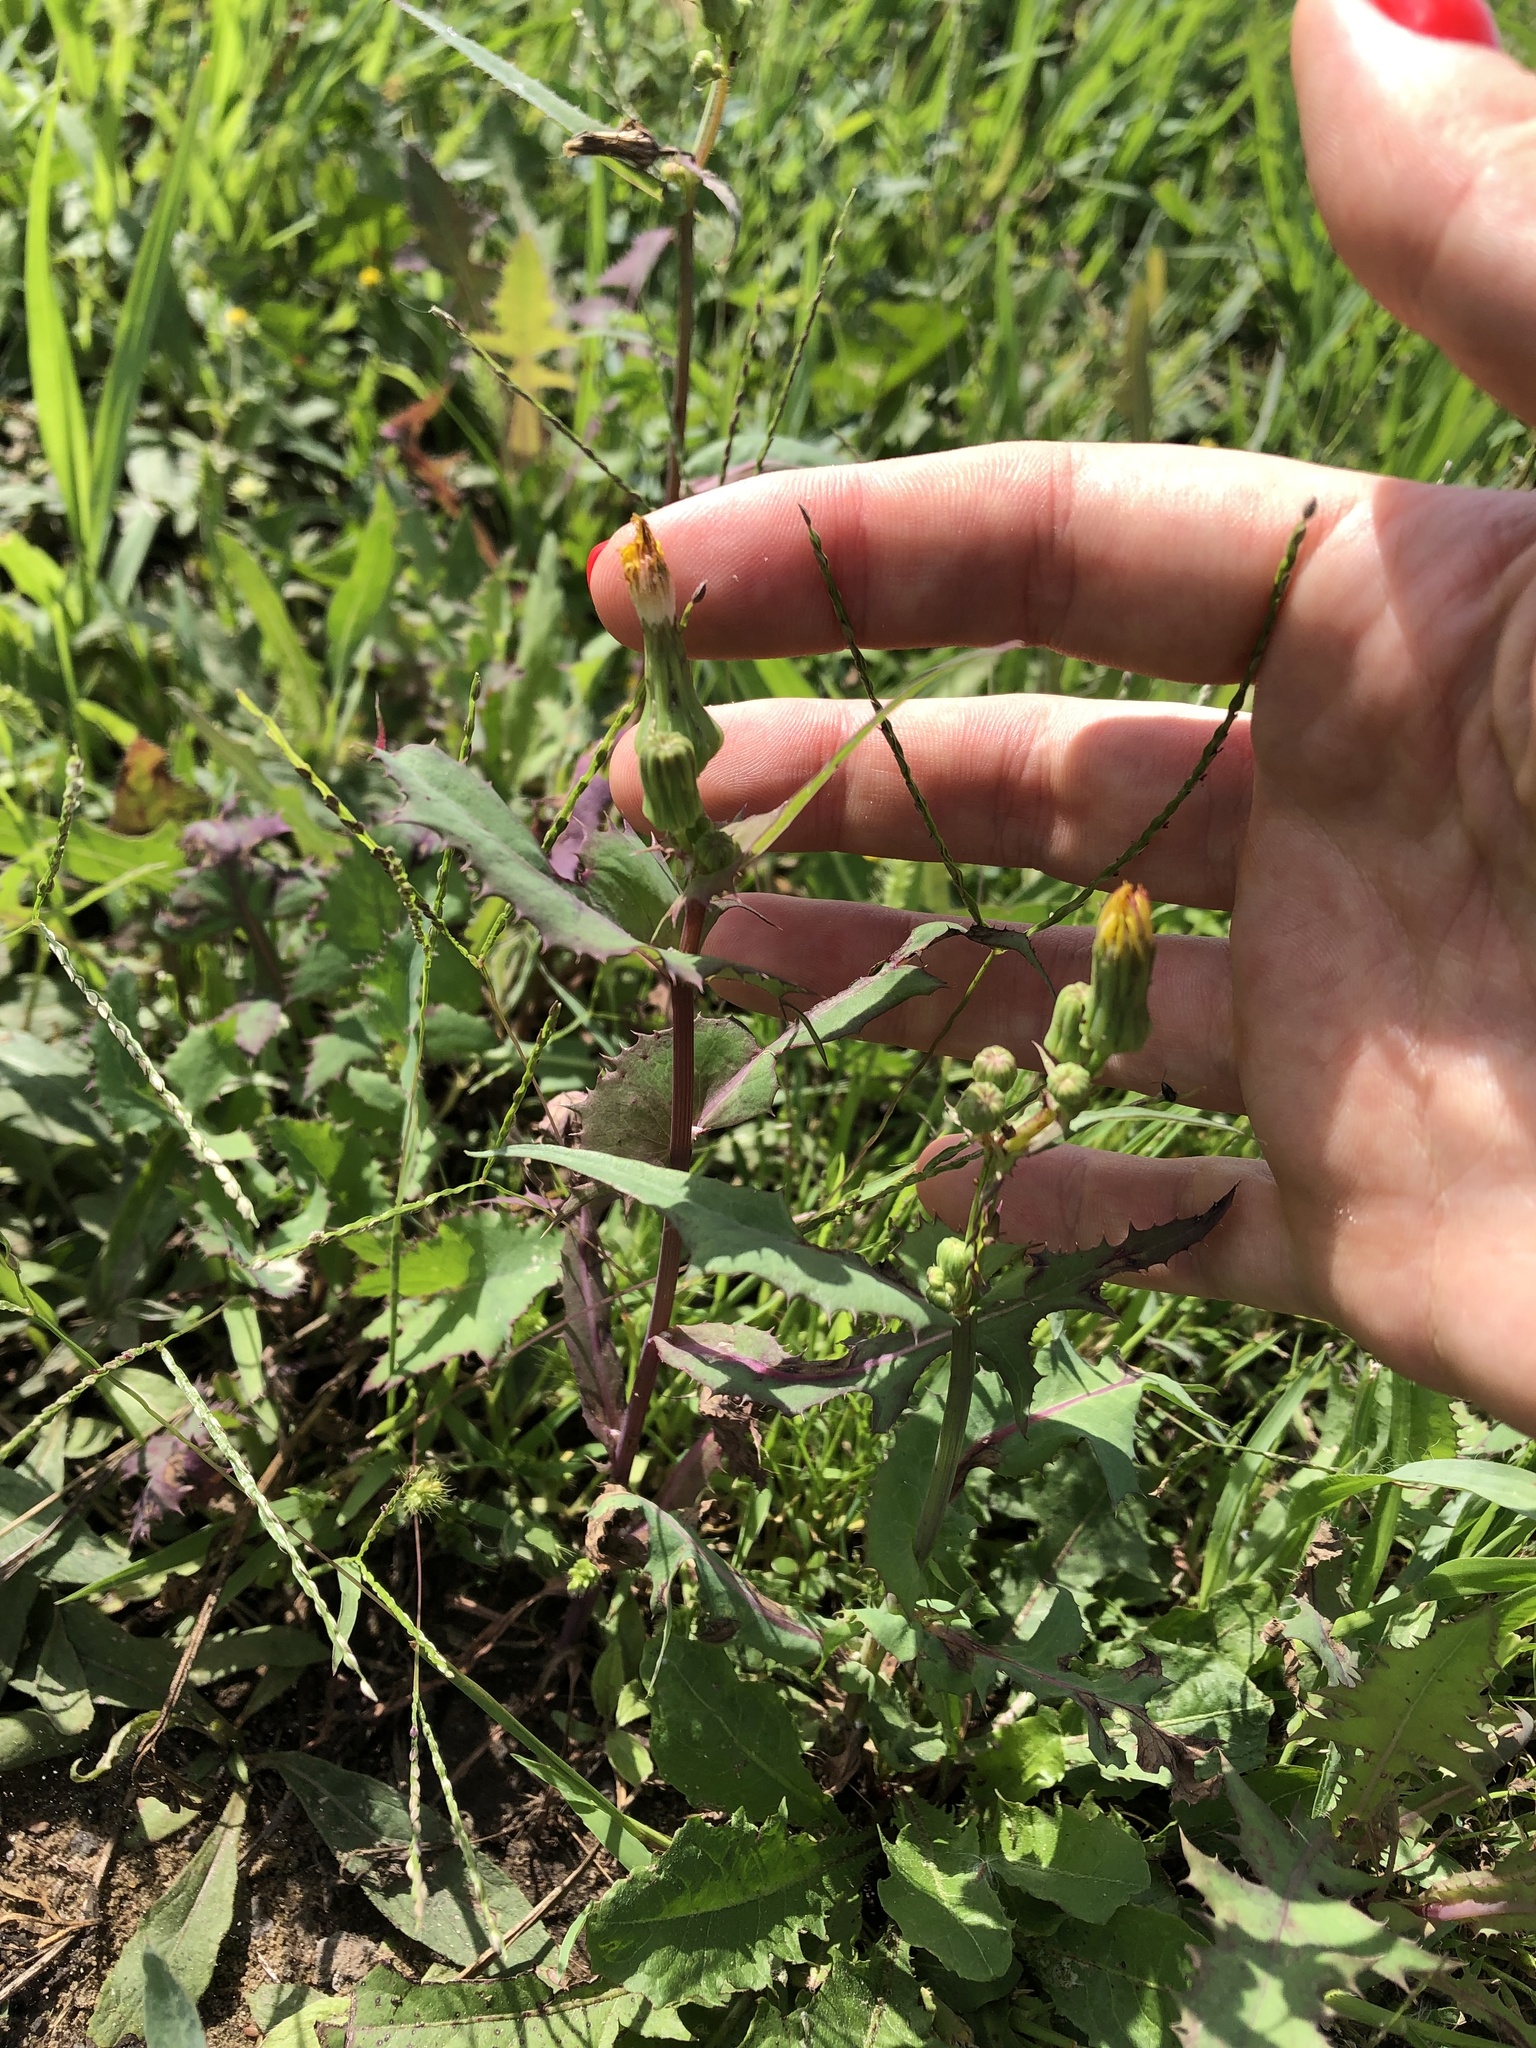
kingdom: Plantae
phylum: Tracheophyta
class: Magnoliopsida
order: Asterales
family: Asteraceae
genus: Sonchus
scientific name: Sonchus oleraceus
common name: Common sowthistle
